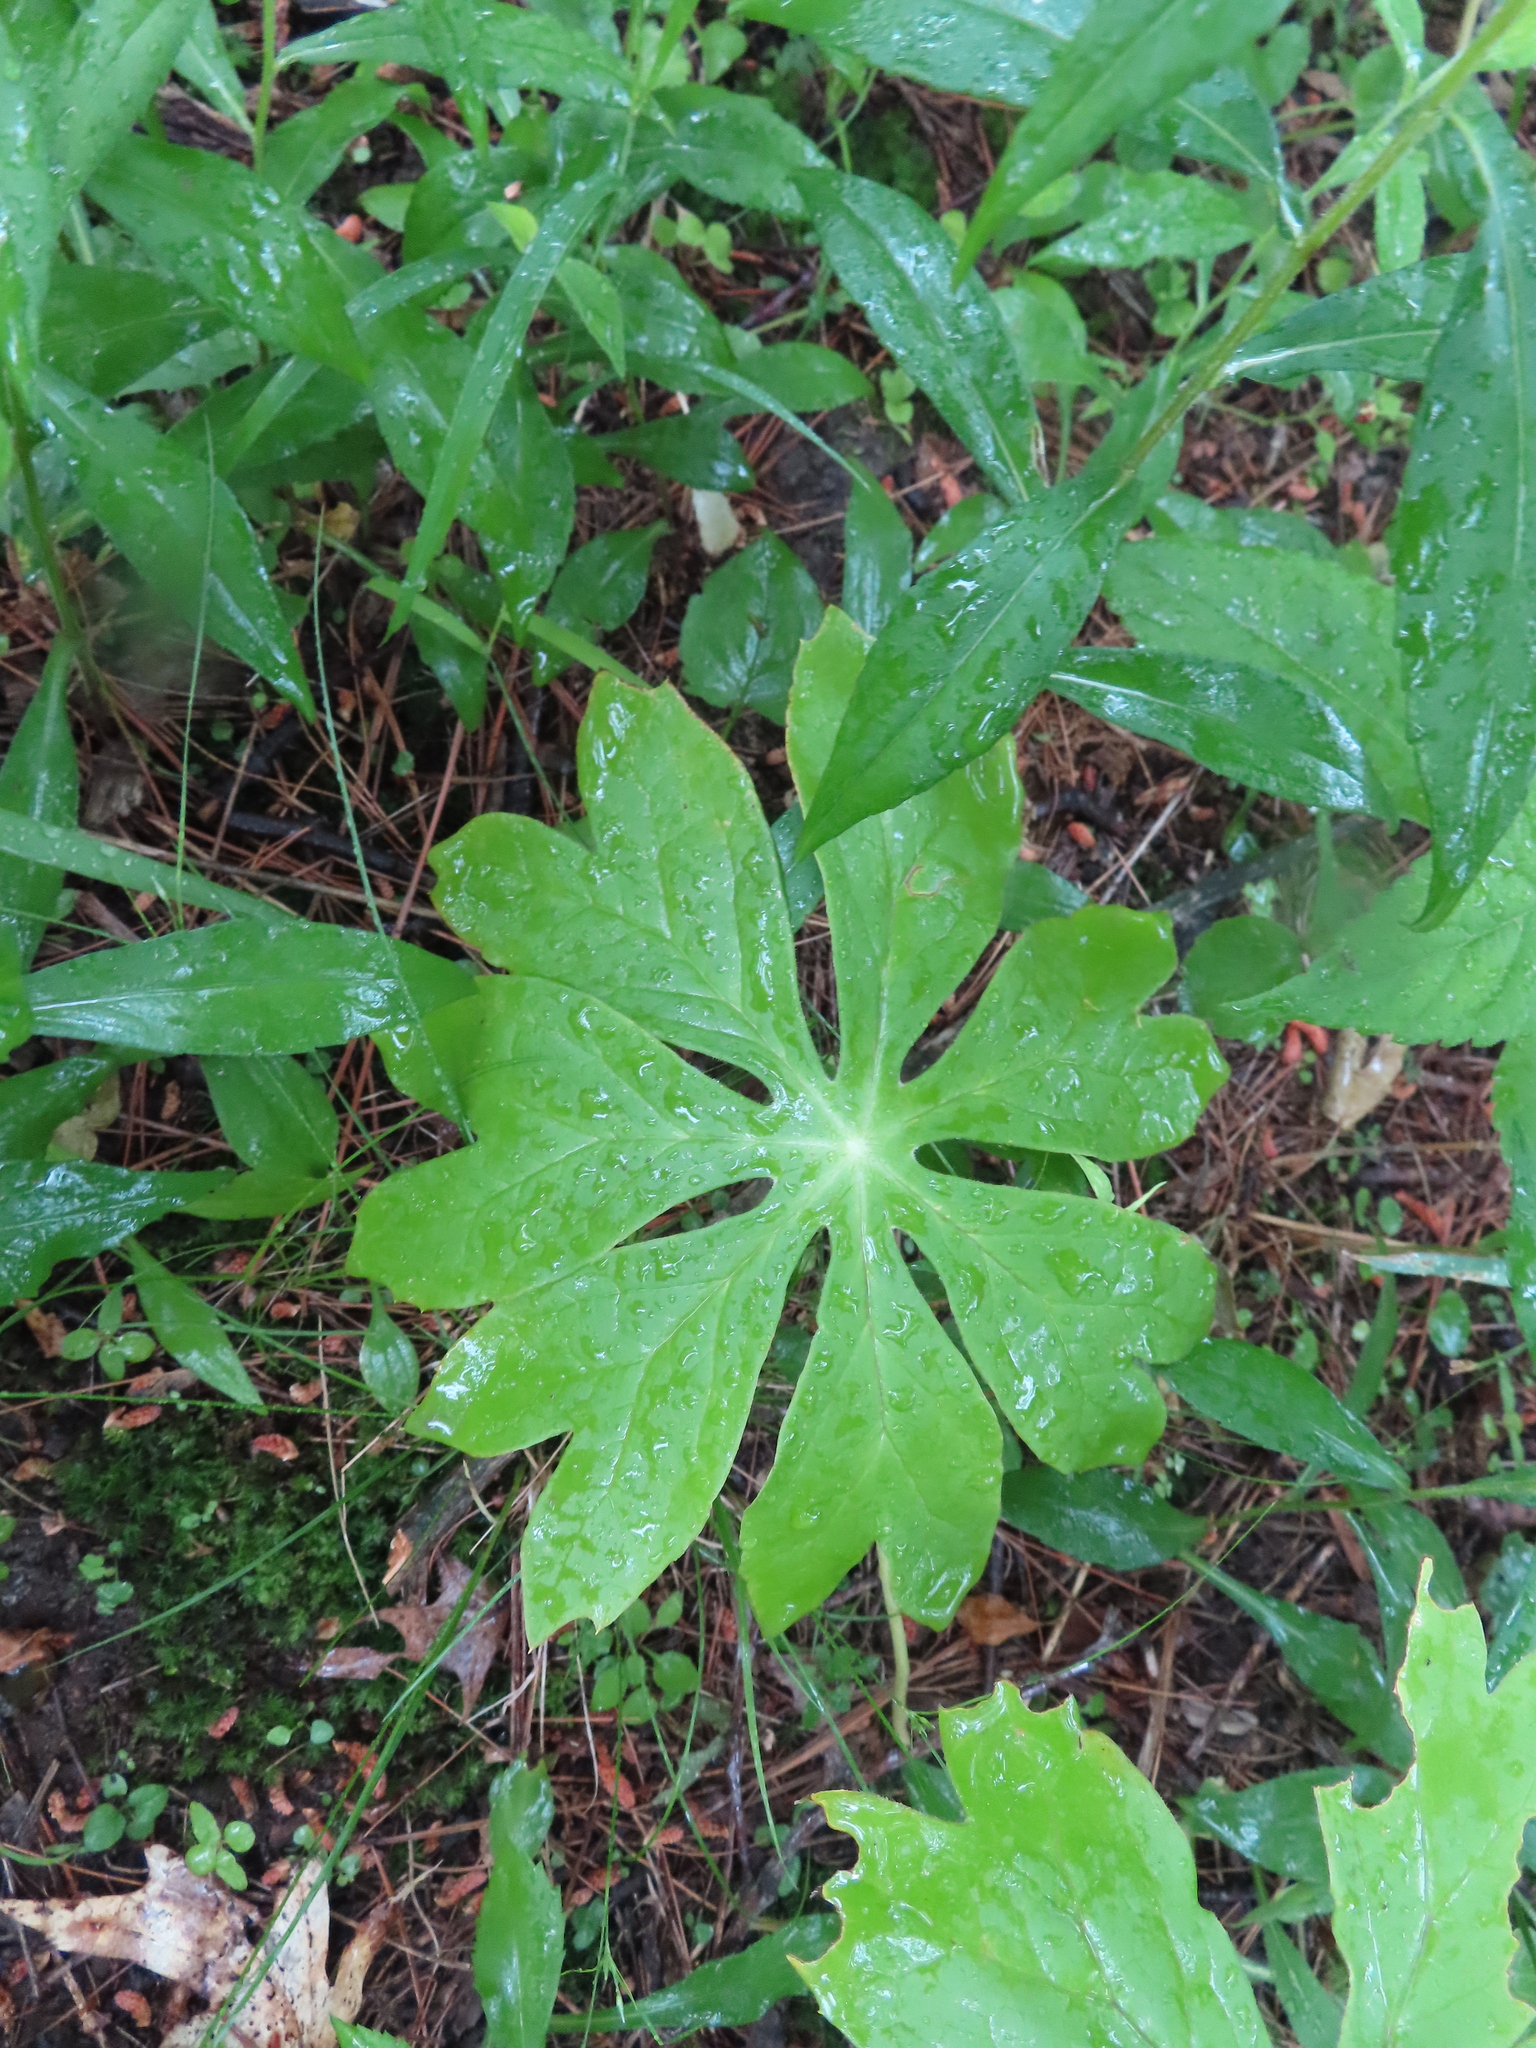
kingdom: Plantae
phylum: Tracheophyta
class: Magnoliopsida
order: Ranunculales
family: Berberidaceae
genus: Podophyllum
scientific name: Podophyllum peltatum
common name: Wild mandrake
